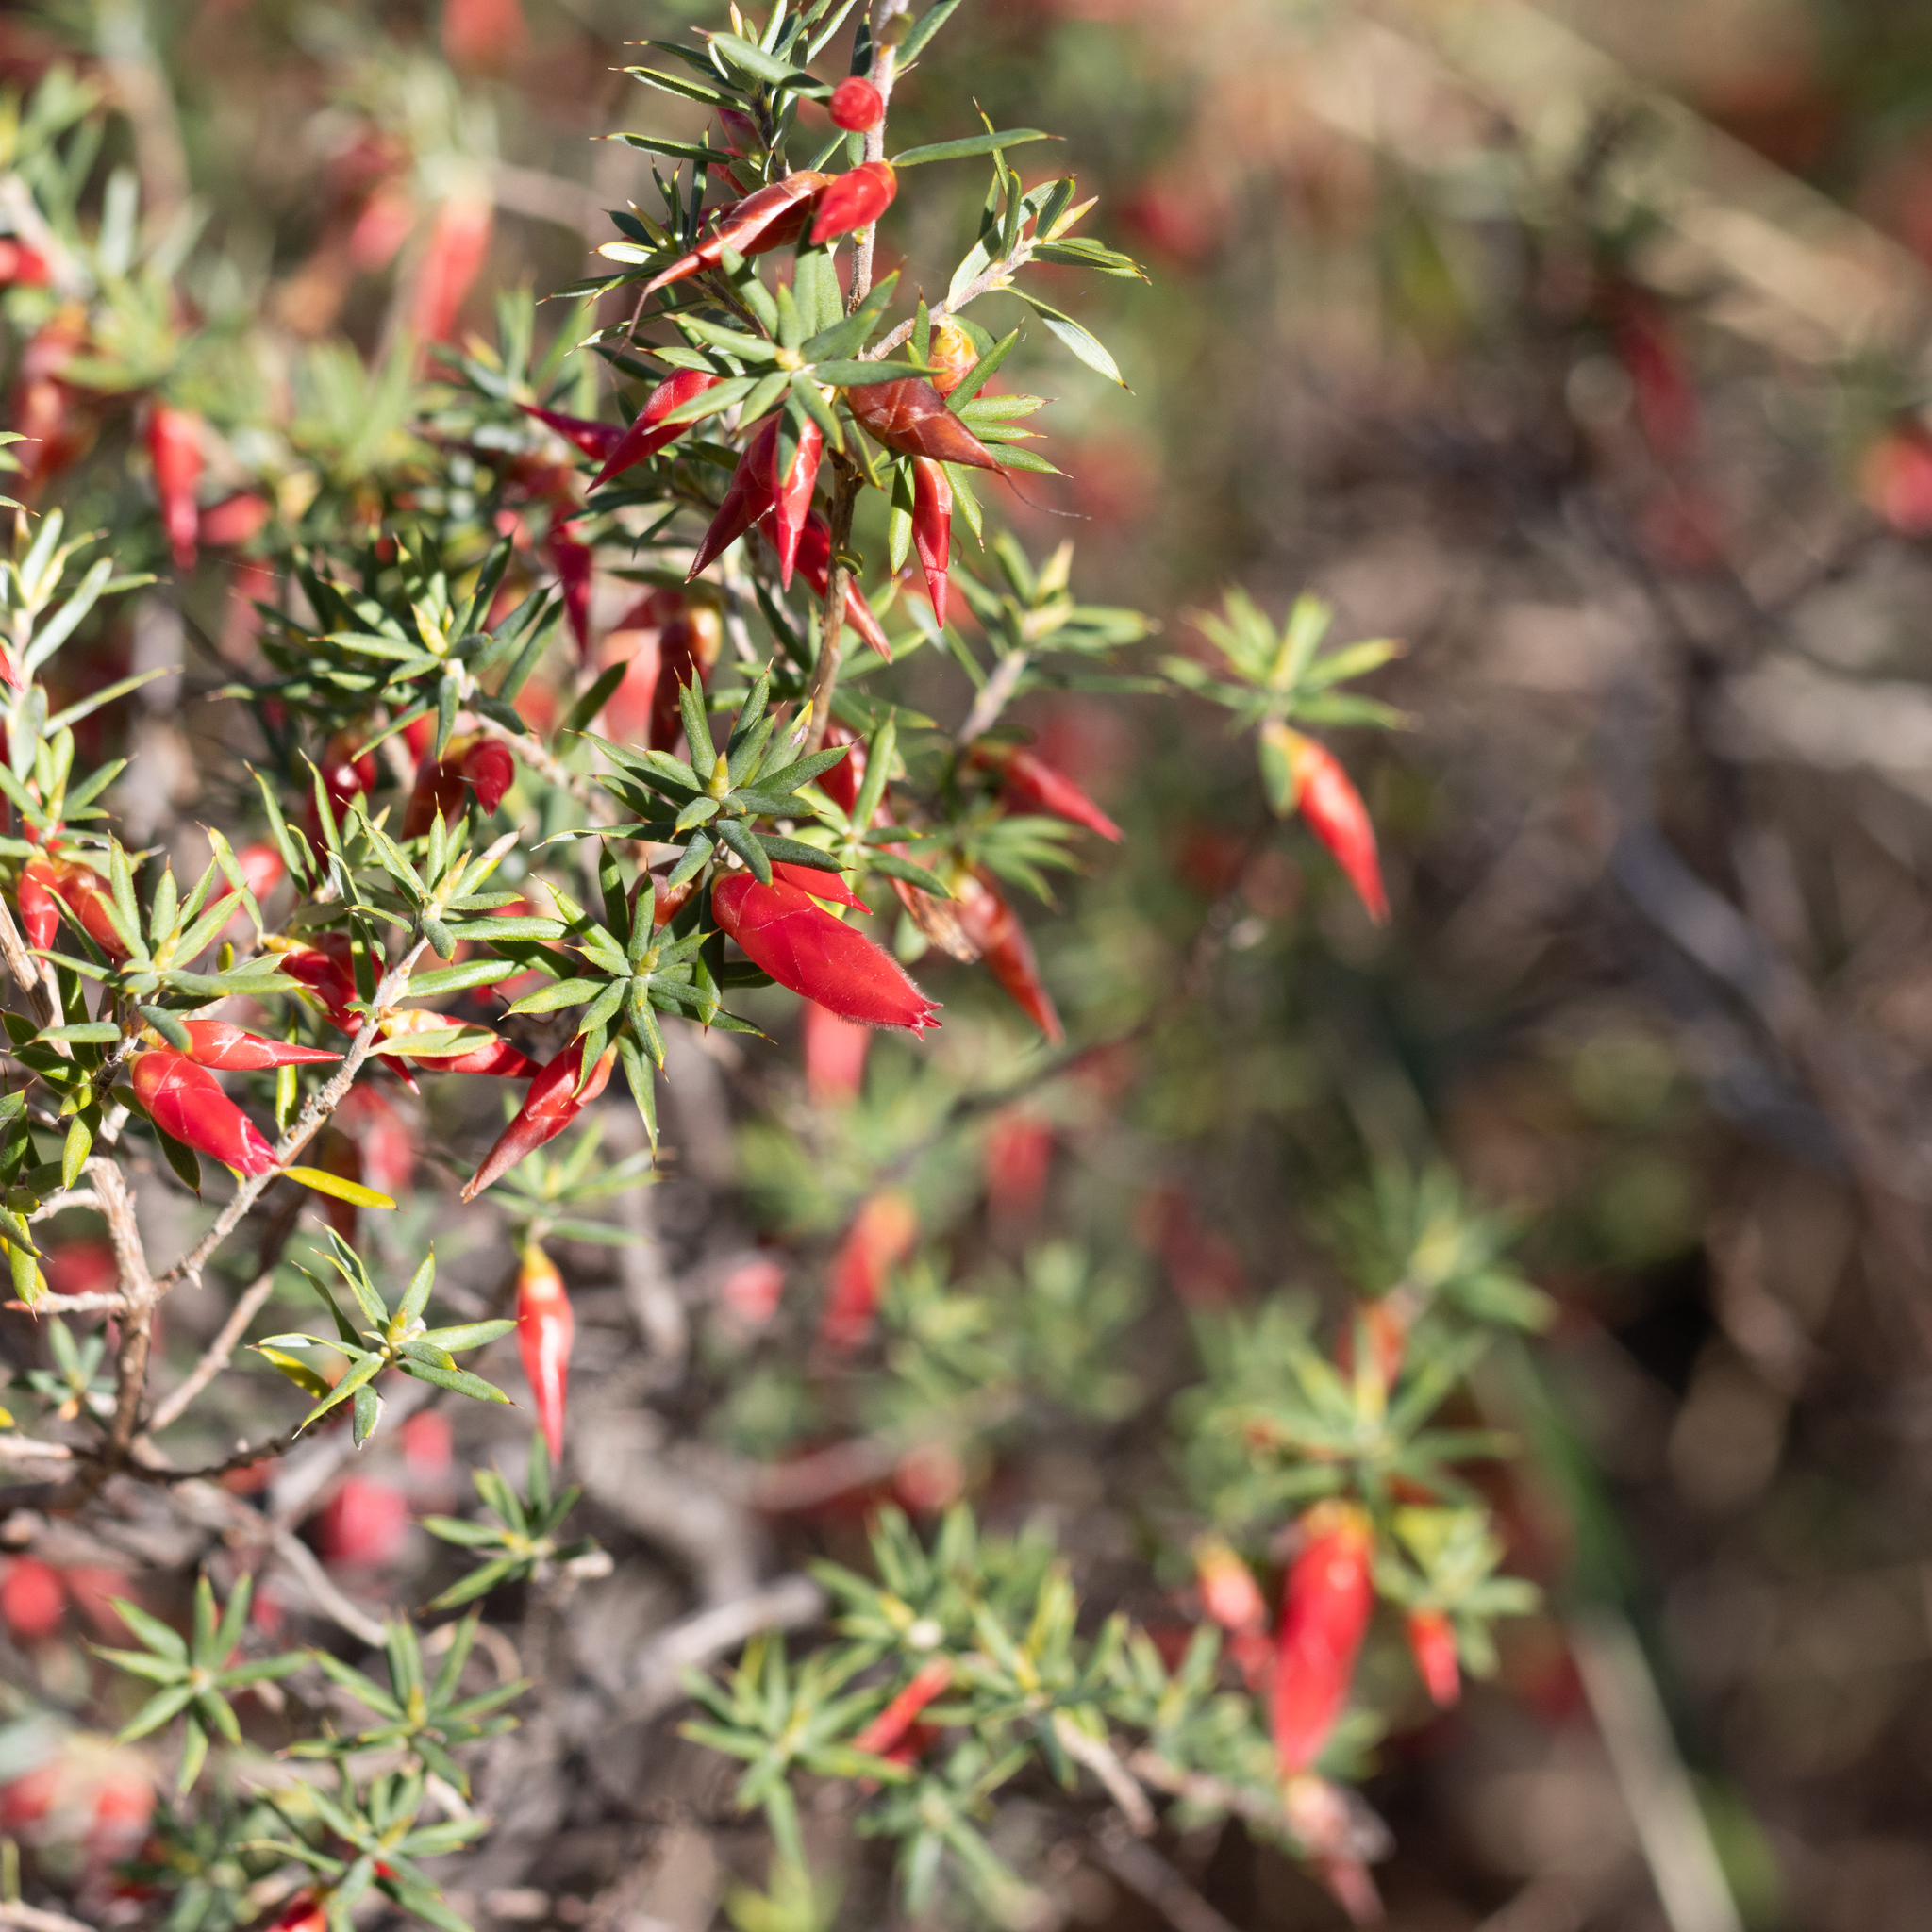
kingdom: Plantae
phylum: Tracheophyta
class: Magnoliopsida
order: Ericales
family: Ericaceae
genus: Stenanthera
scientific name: Stenanthera conostephioides
